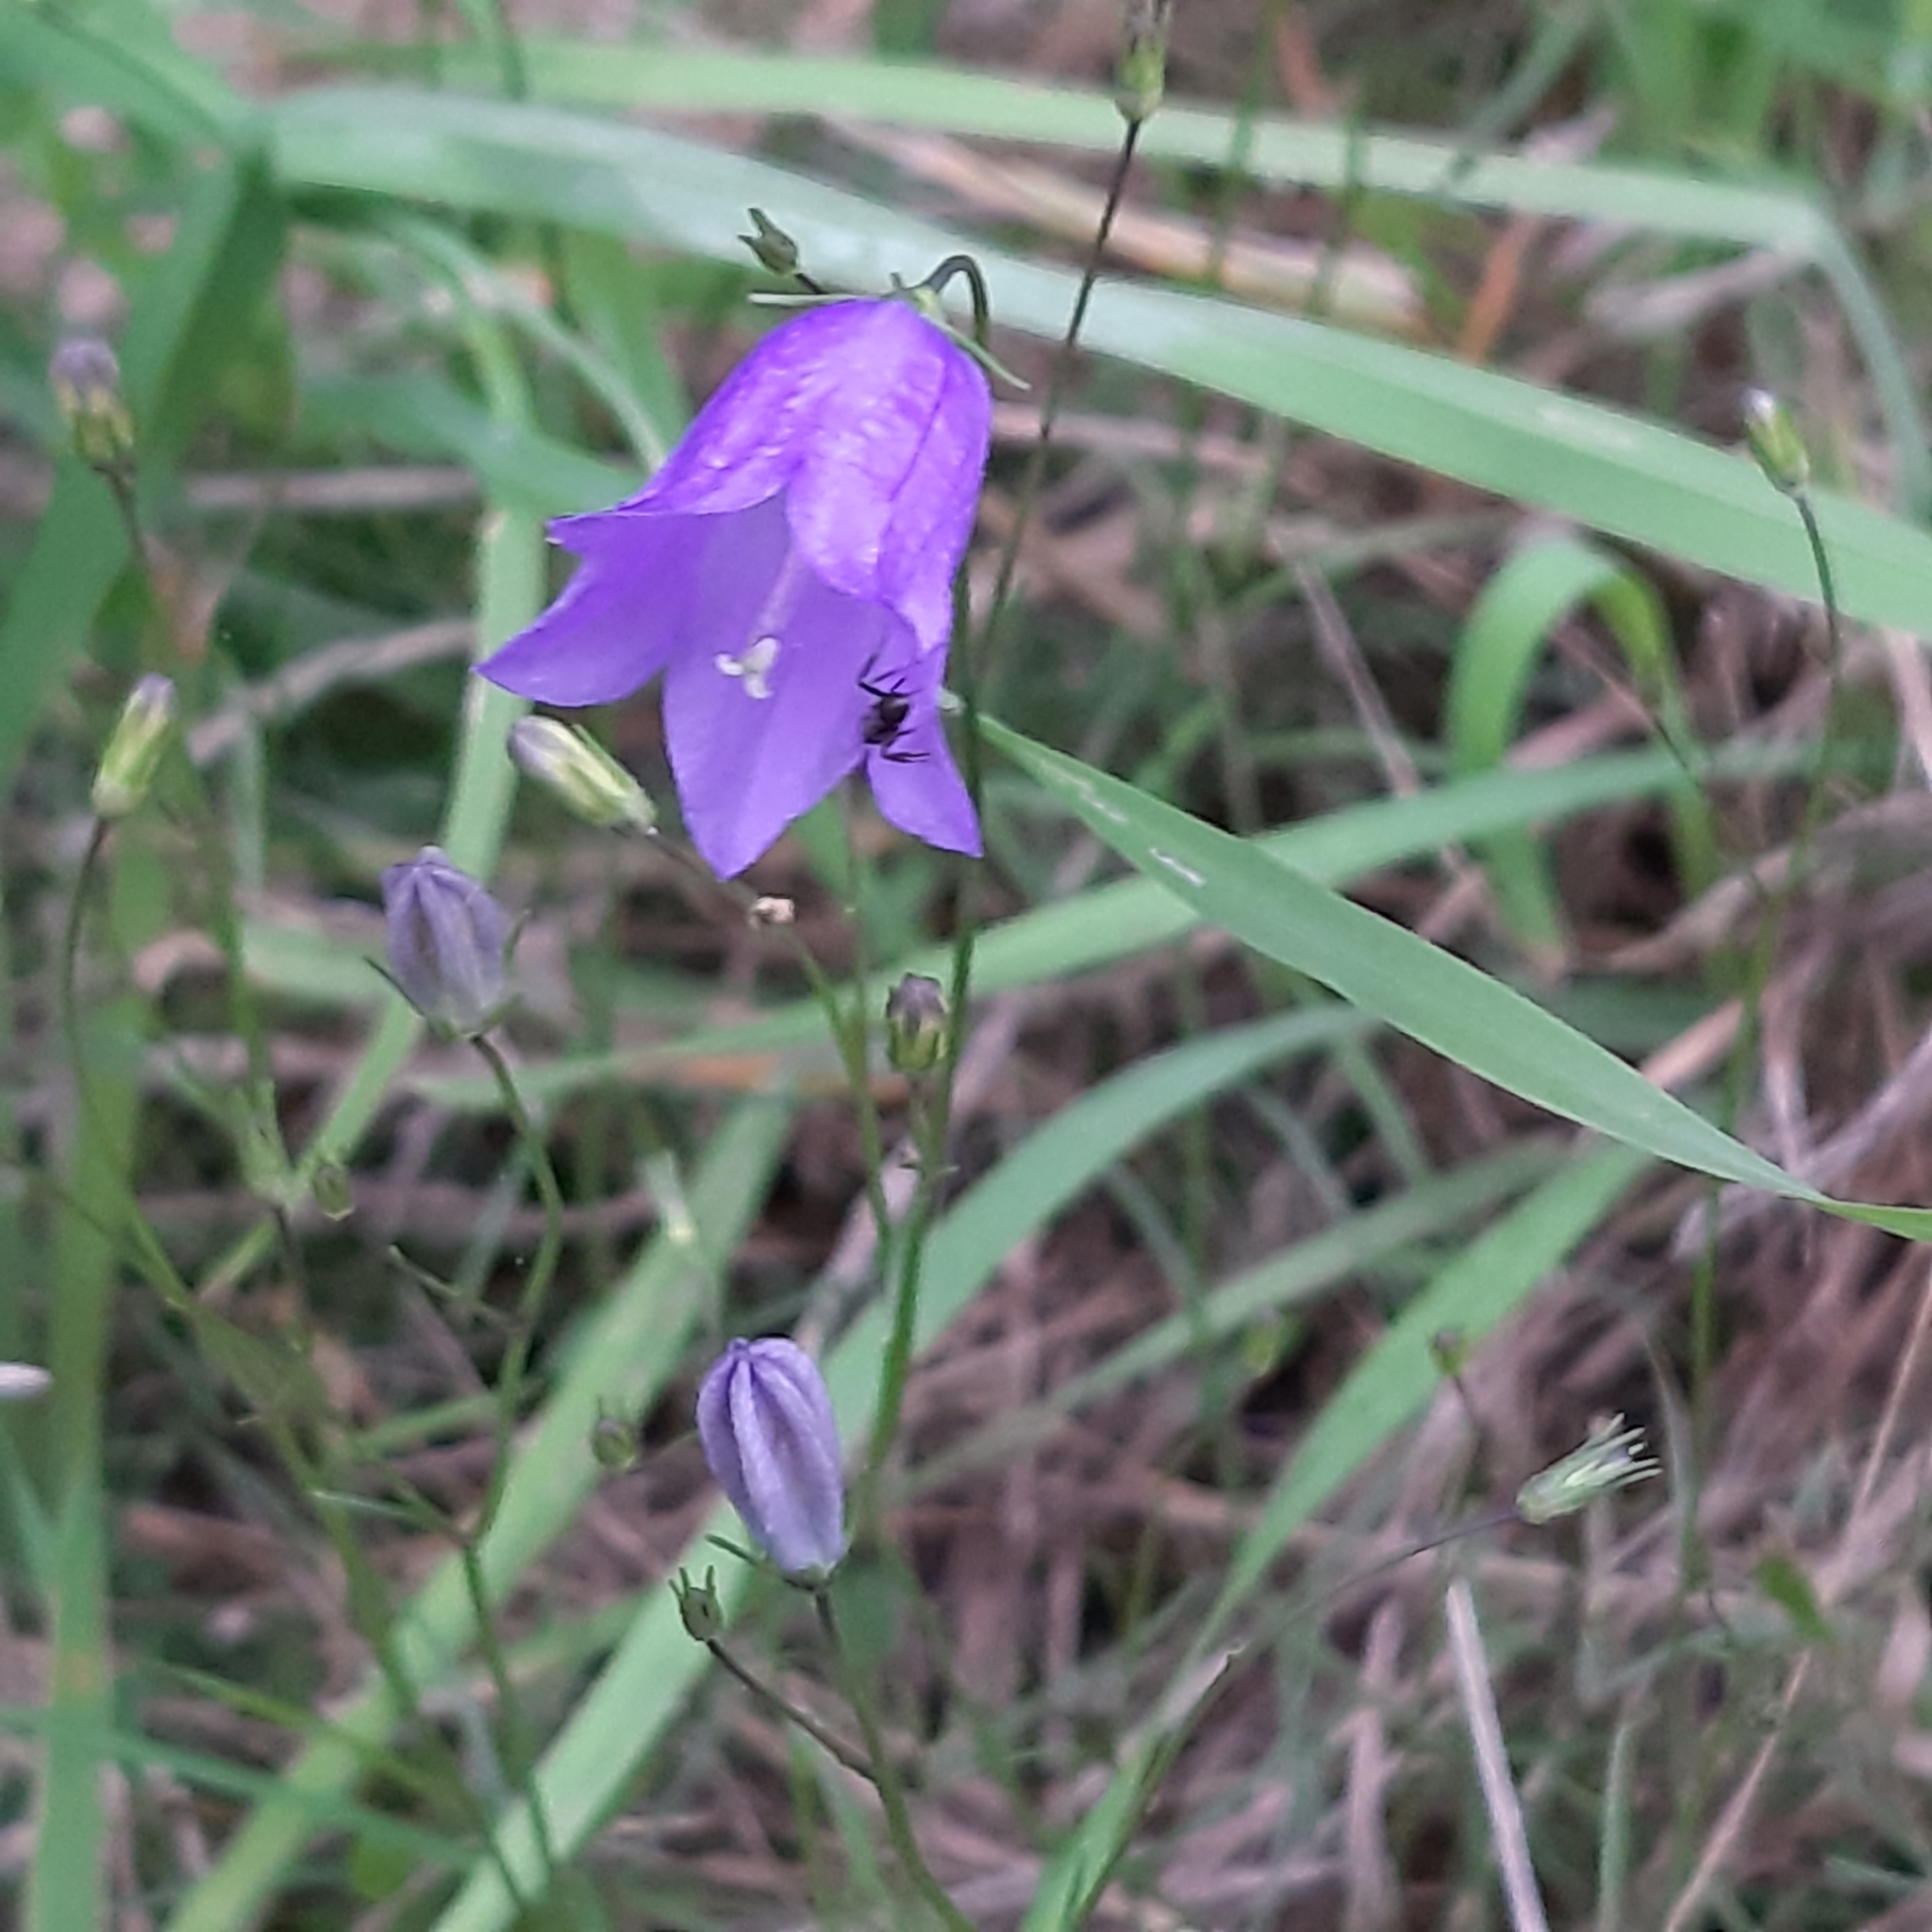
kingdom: Plantae
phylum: Tracheophyta
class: Magnoliopsida
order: Asterales
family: Campanulaceae
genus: Campanula
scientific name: Campanula rotundifolia
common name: Harebell
